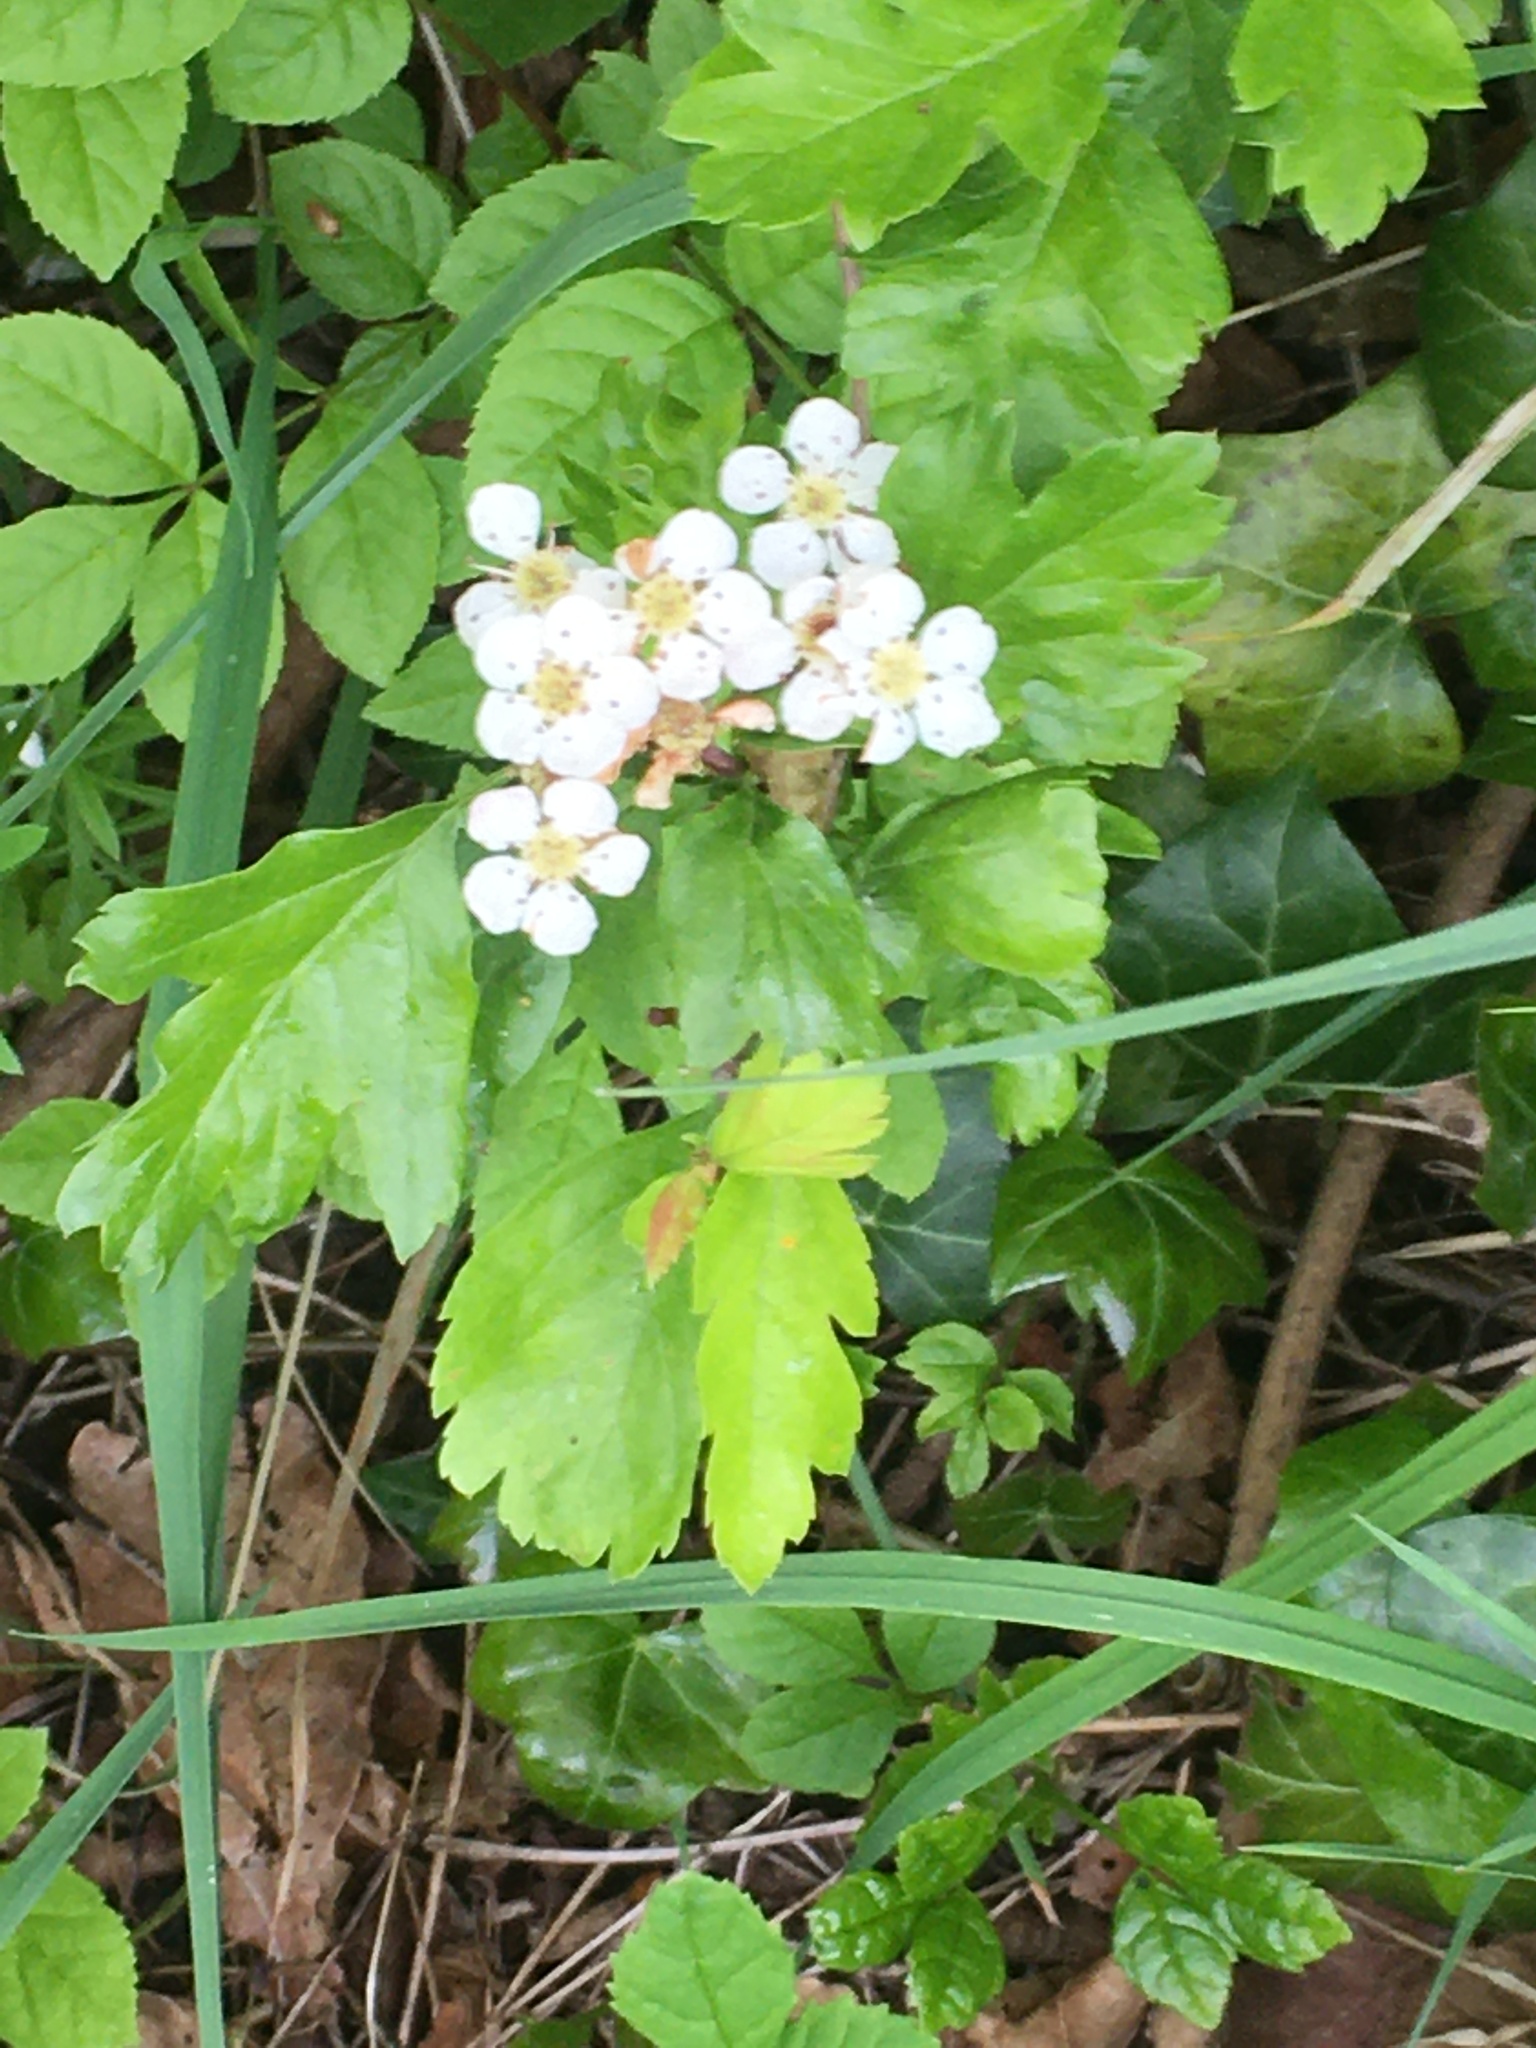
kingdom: Plantae
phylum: Tracheophyta
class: Magnoliopsida
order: Rosales
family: Rosaceae
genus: Crataegus
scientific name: Crataegus monogyna
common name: Hawthorn
